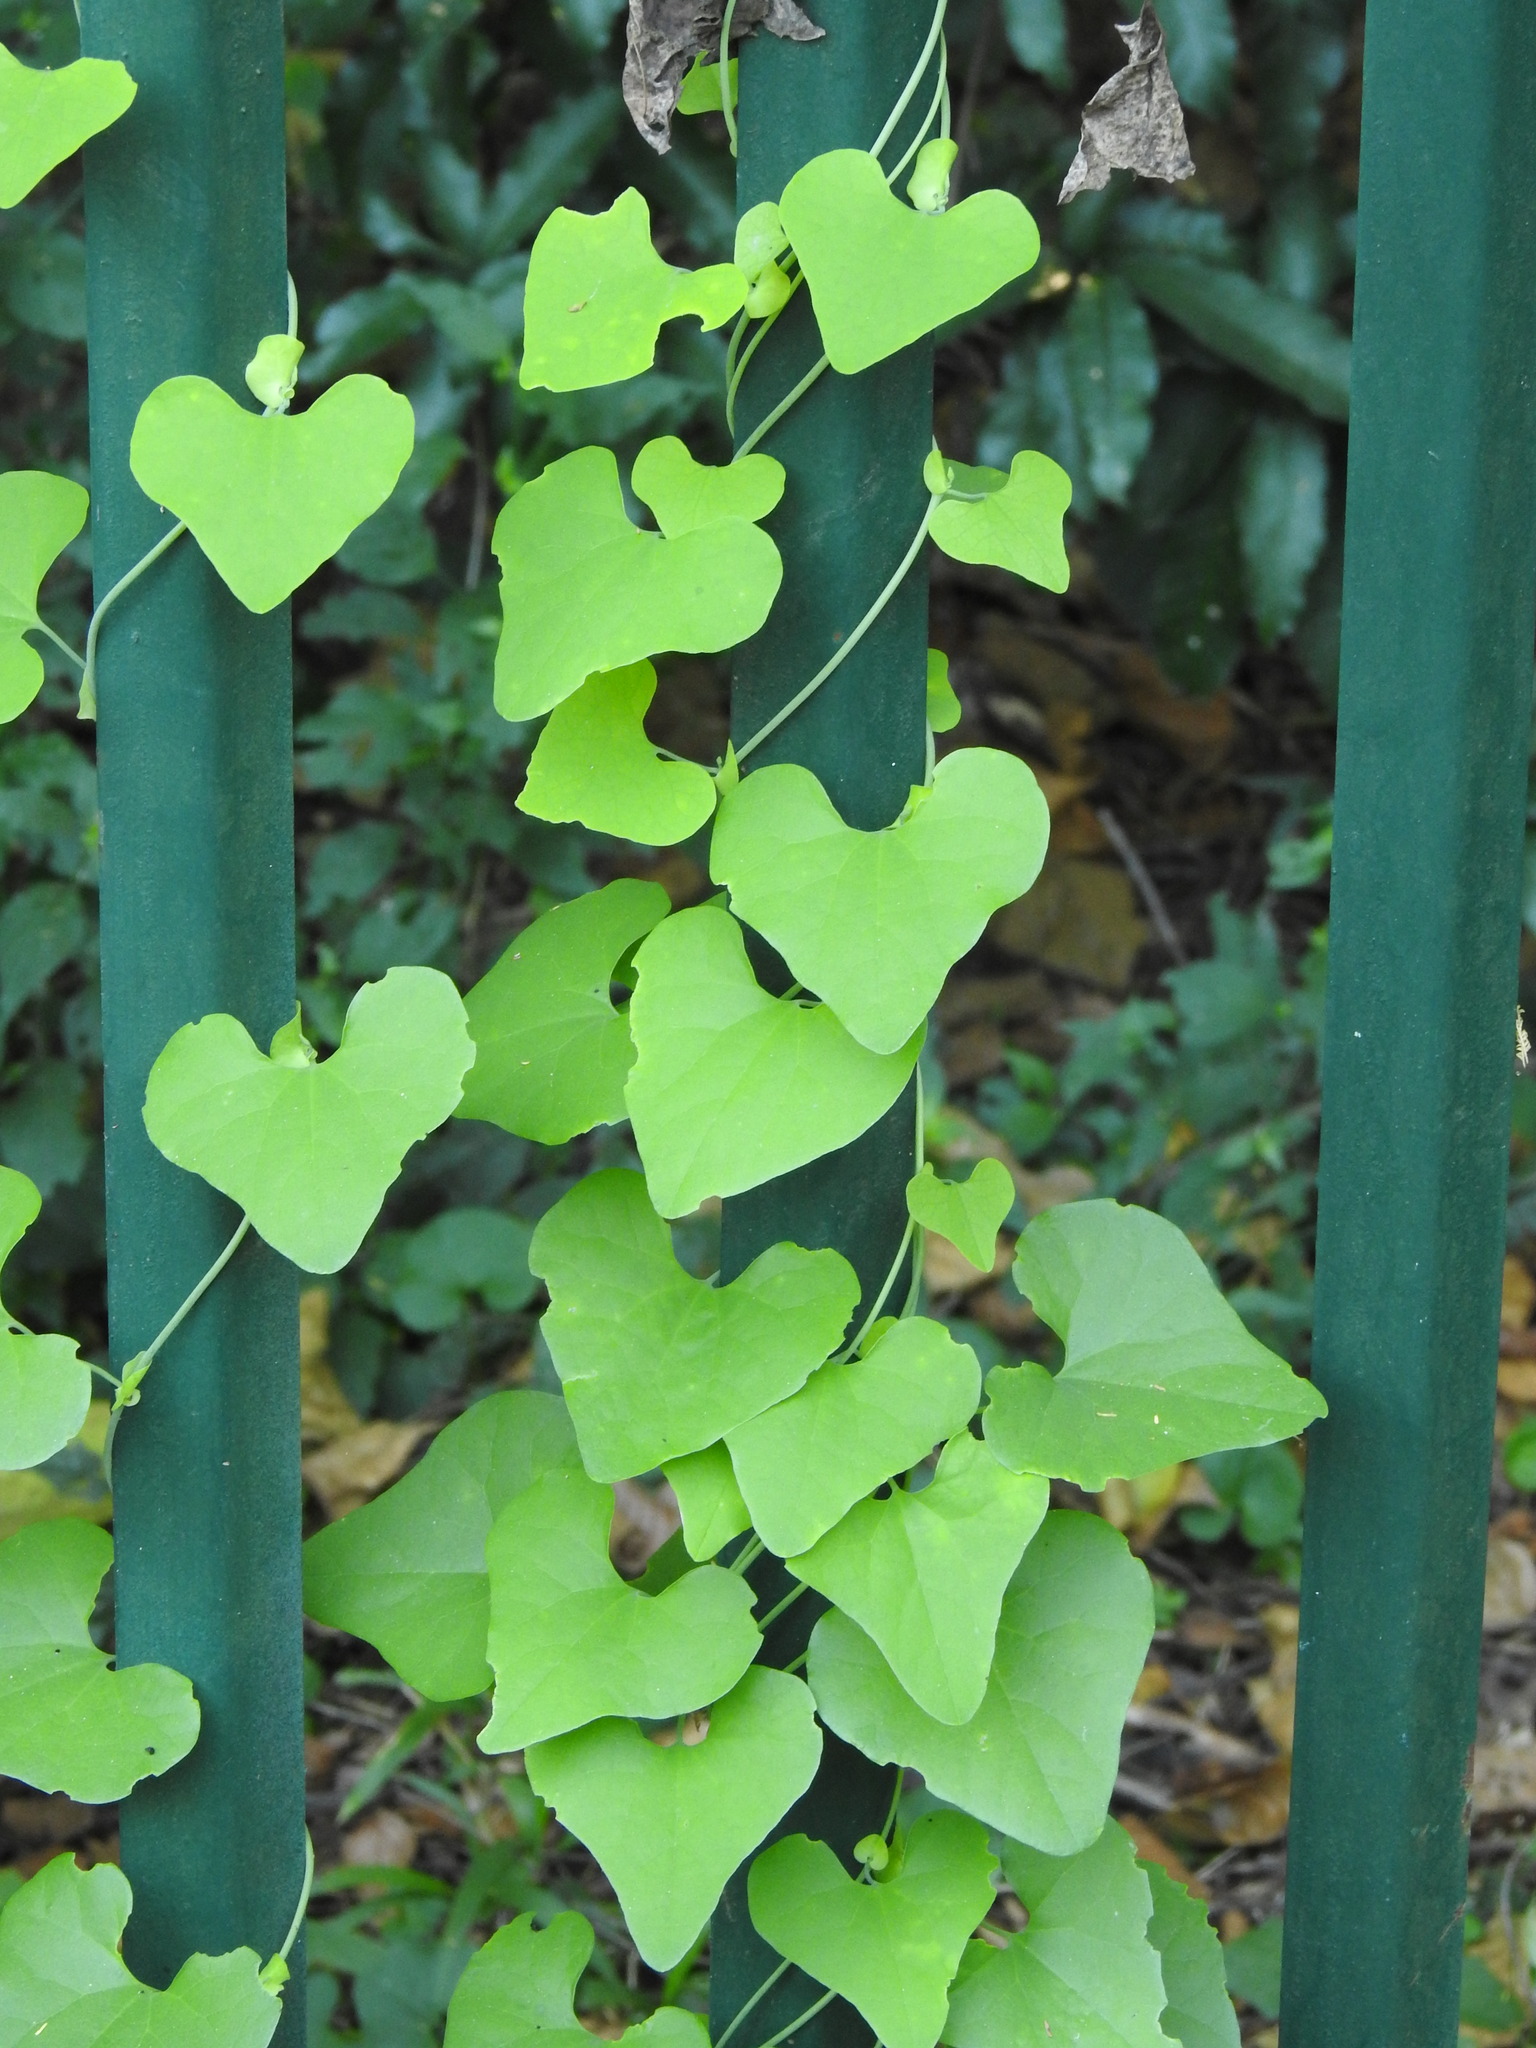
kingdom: Plantae
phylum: Tracheophyta
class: Magnoliopsida
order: Piperales
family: Aristolochiaceae
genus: Aristolochia
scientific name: Aristolochia littoralis
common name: Duck
